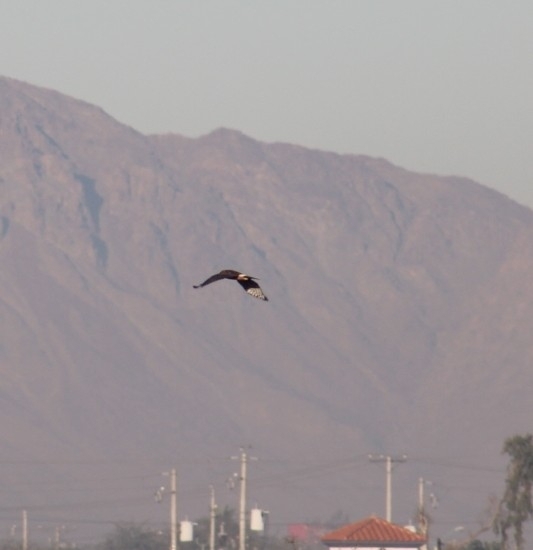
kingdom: Animalia
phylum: Chordata
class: Aves
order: Accipitriformes
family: Accipitridae
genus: Circus
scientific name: Circus cyaneus
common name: Hen harrier
